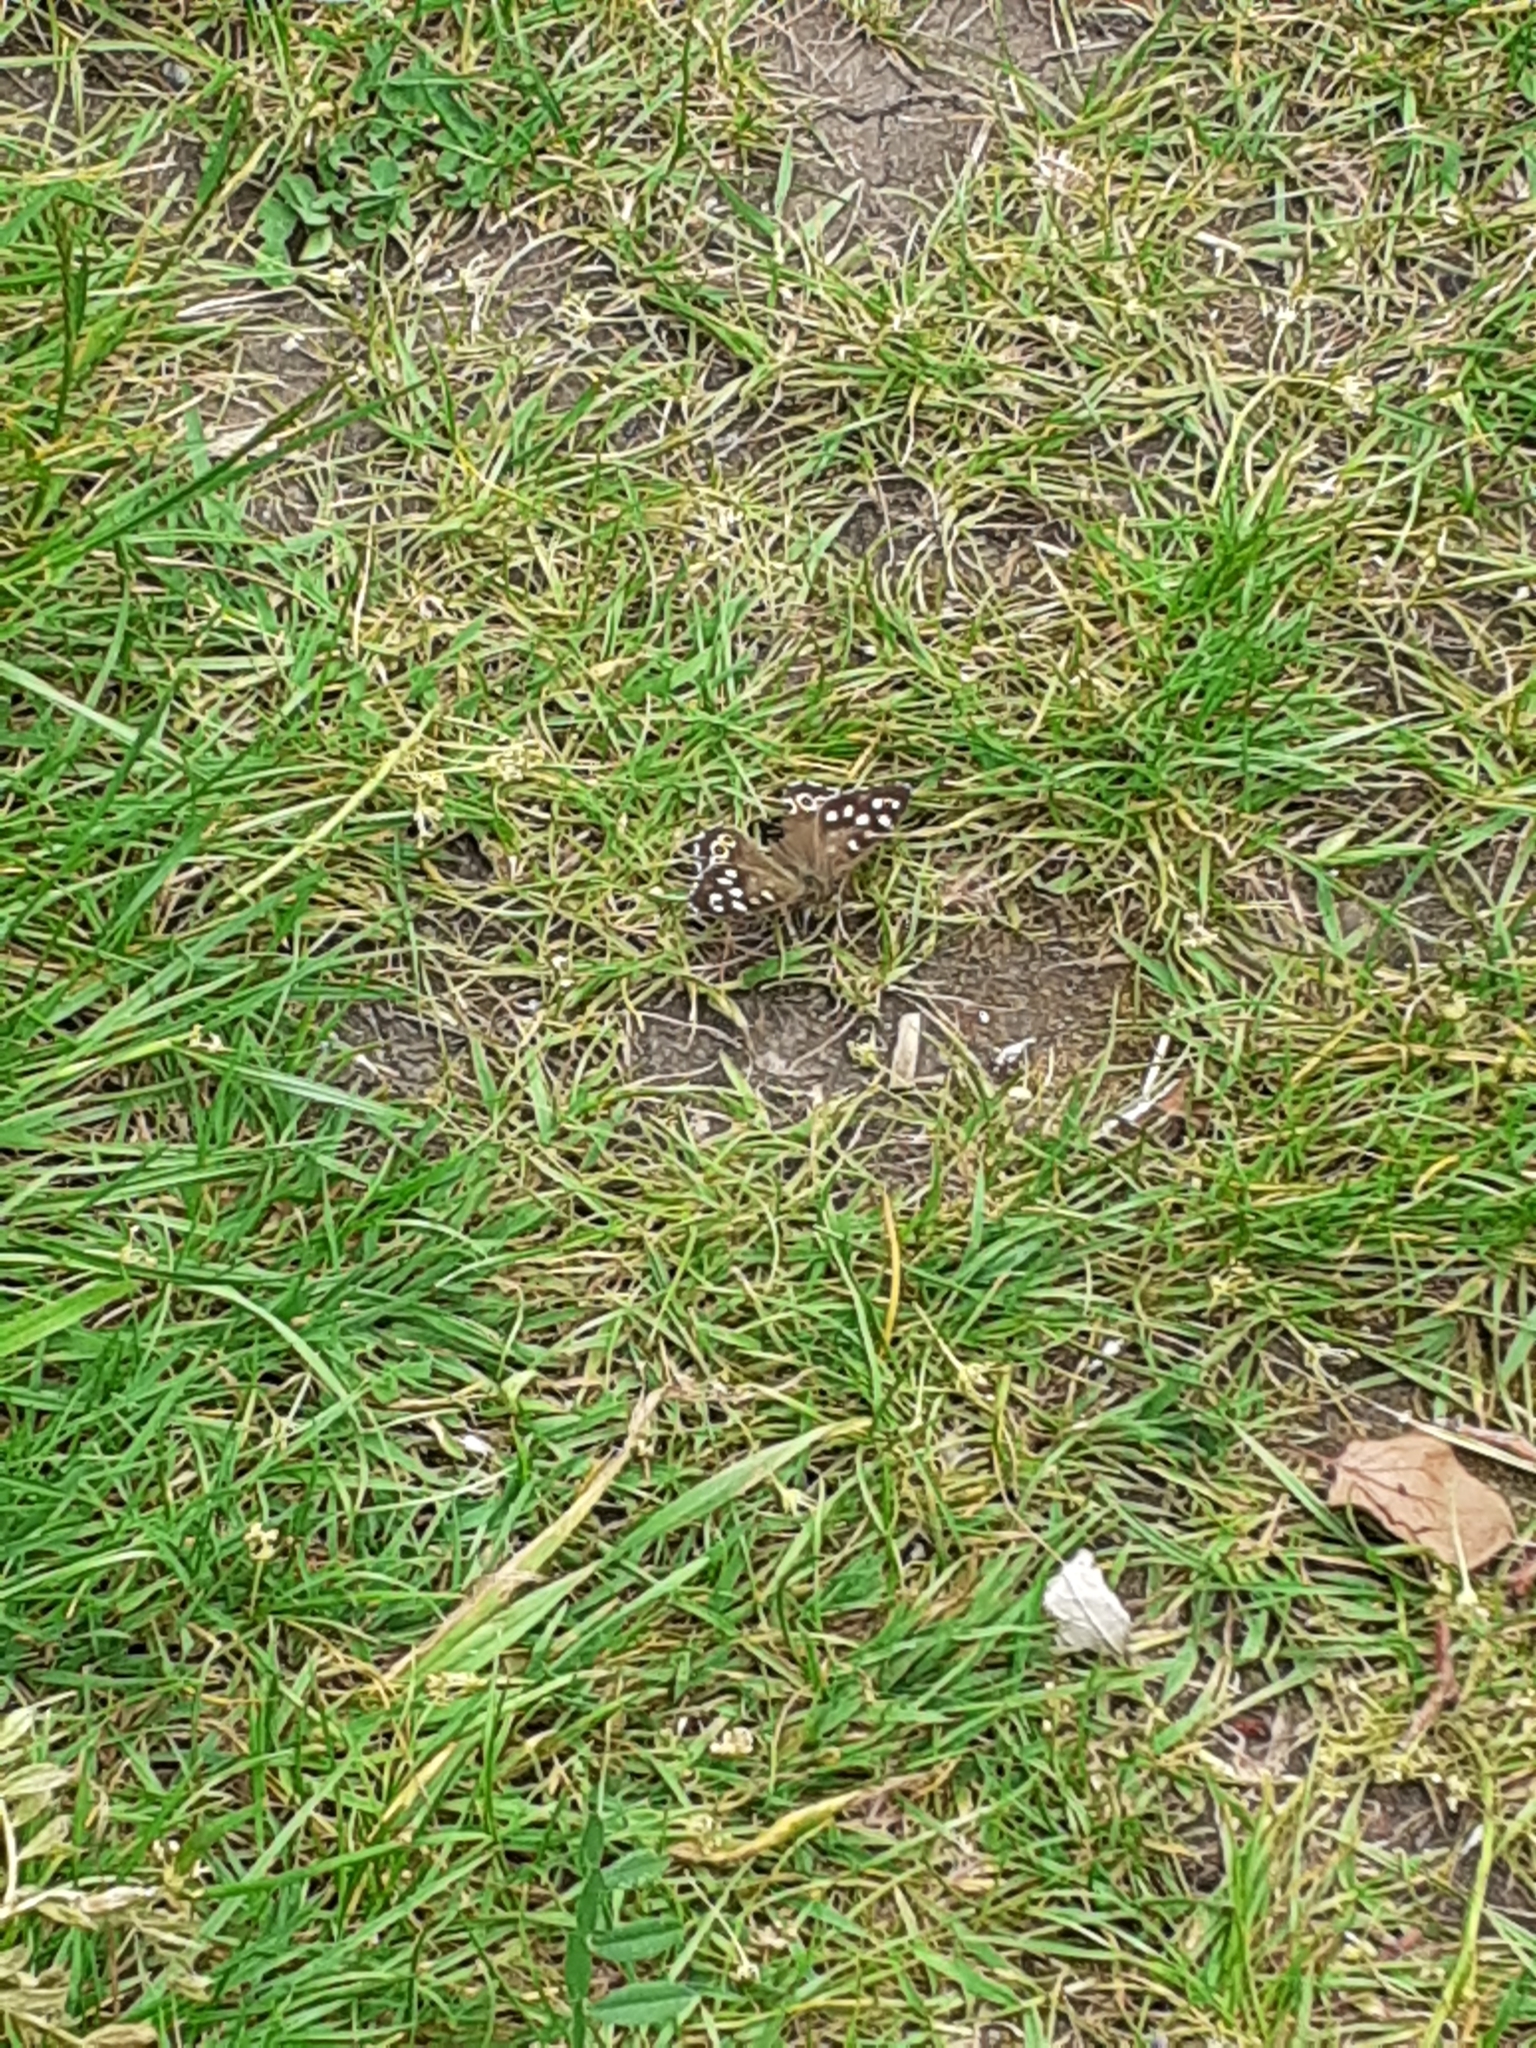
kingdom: Animalia
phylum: Arthropoda
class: Insecta
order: Lepidoptera
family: Nymphalidae
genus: Pararge
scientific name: Pararge aegeria
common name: Speckled wood
